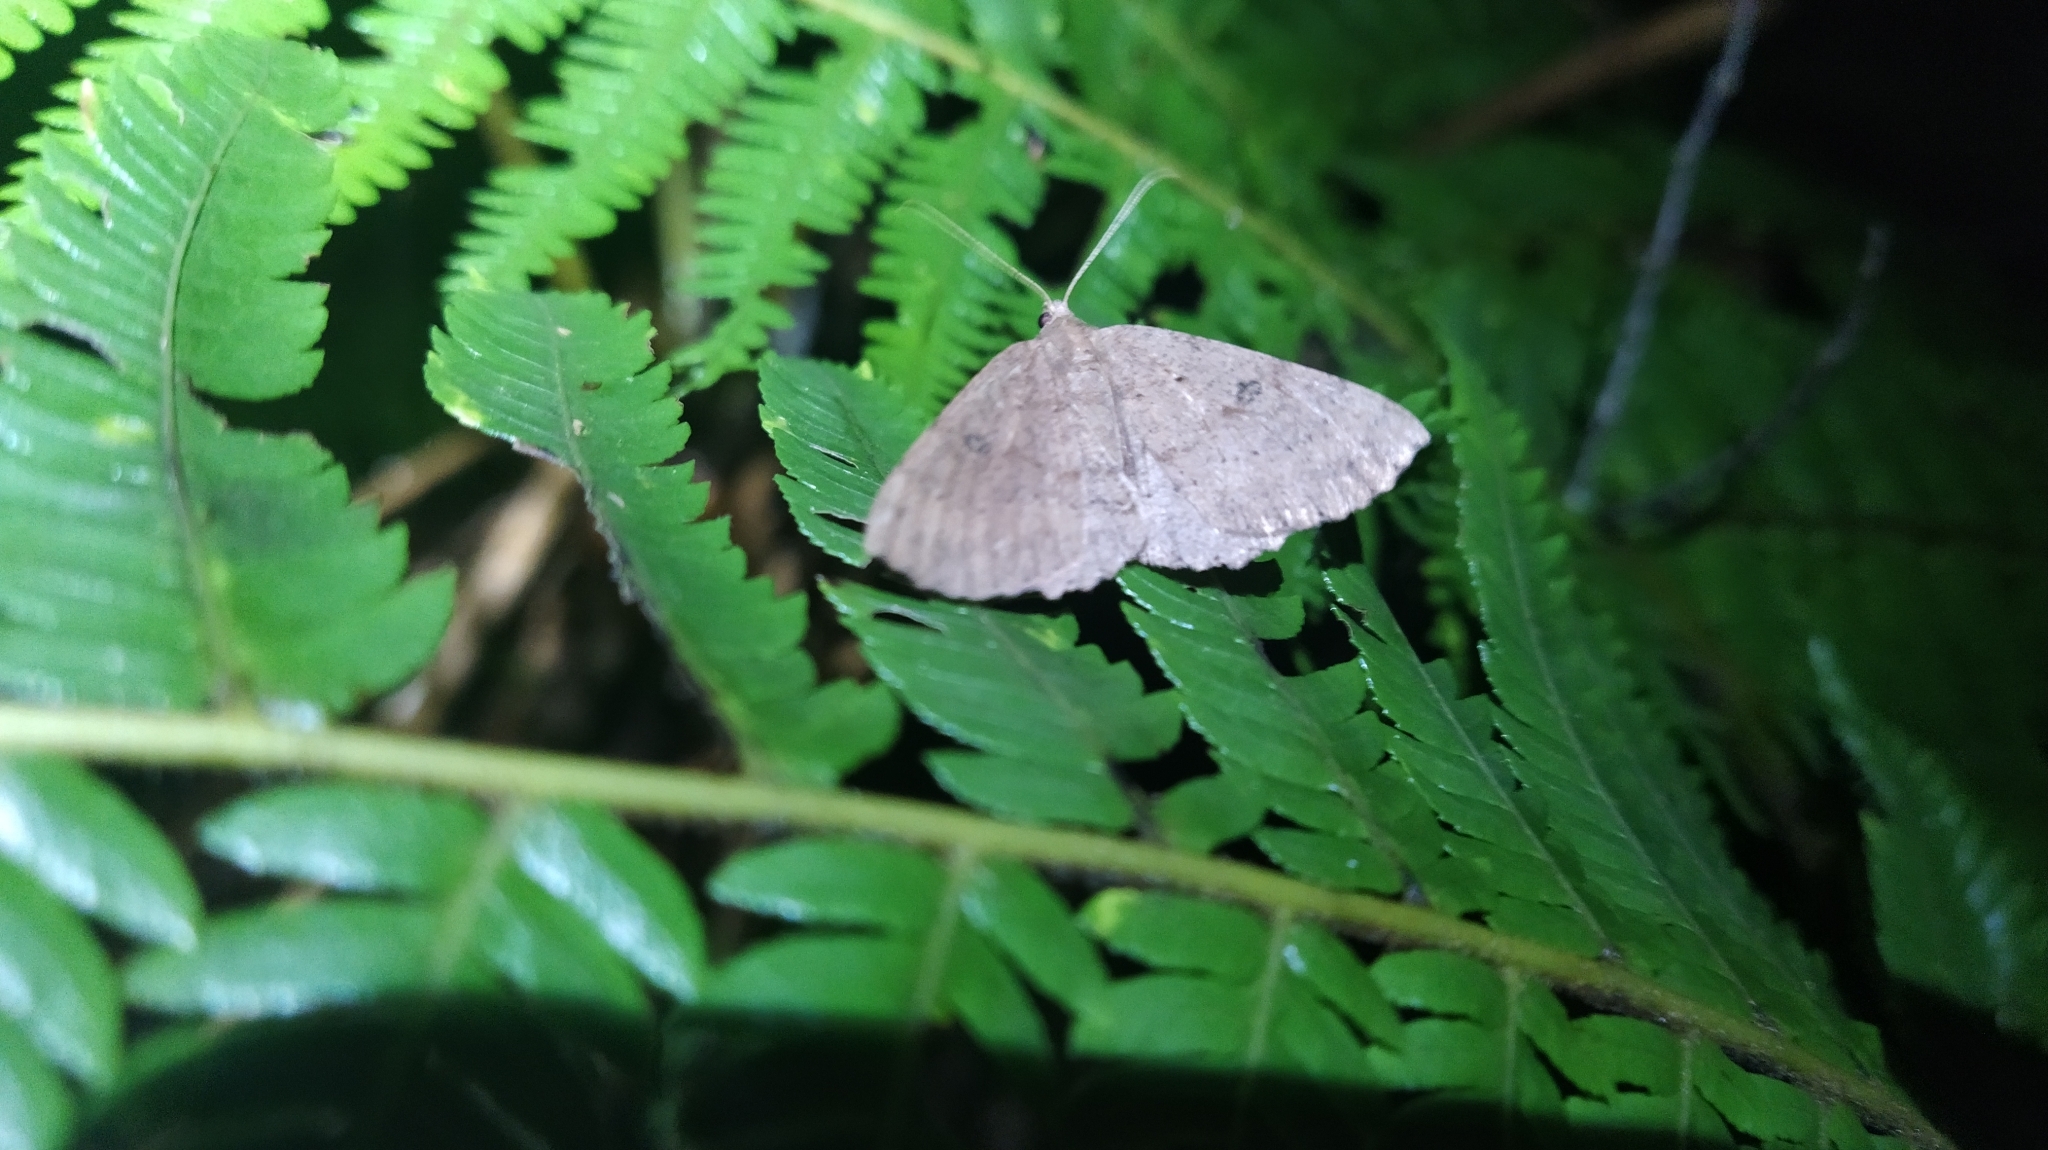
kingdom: Animalia
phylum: Arthropoda
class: Insecta
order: Lepidoptera
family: Geometridae
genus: Cleora
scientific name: Cleora scriptaria
